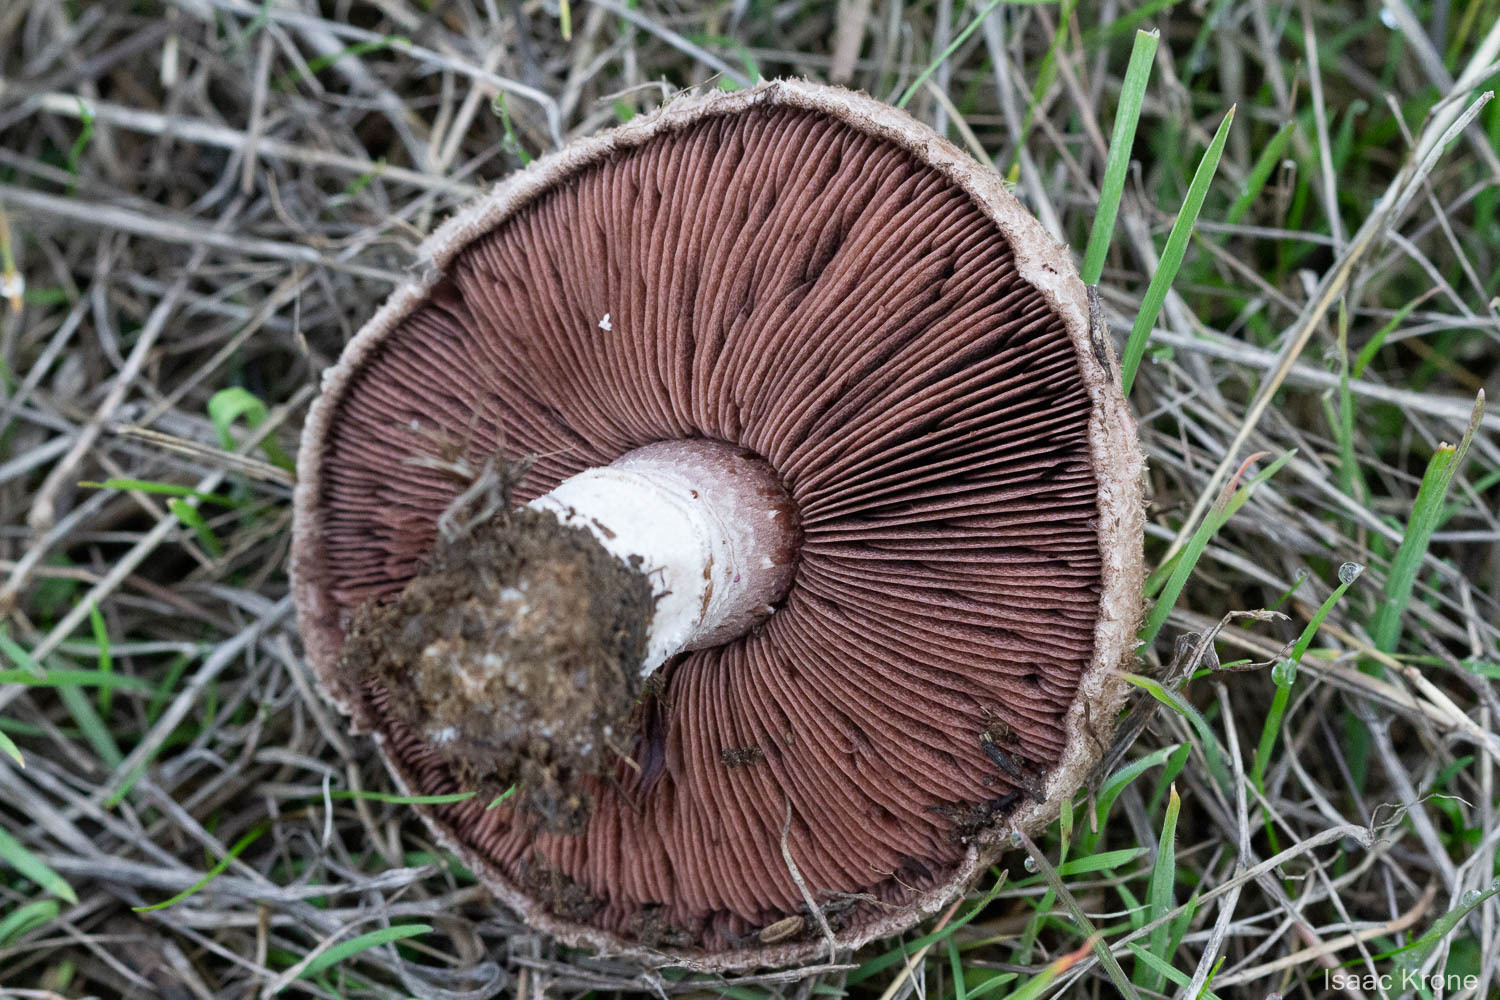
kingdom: Fungi
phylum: Basidiomycota
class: Agaricomycetes
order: Agaricales
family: Agaricaceae
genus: Agaricus
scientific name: Agaricus incultorum
